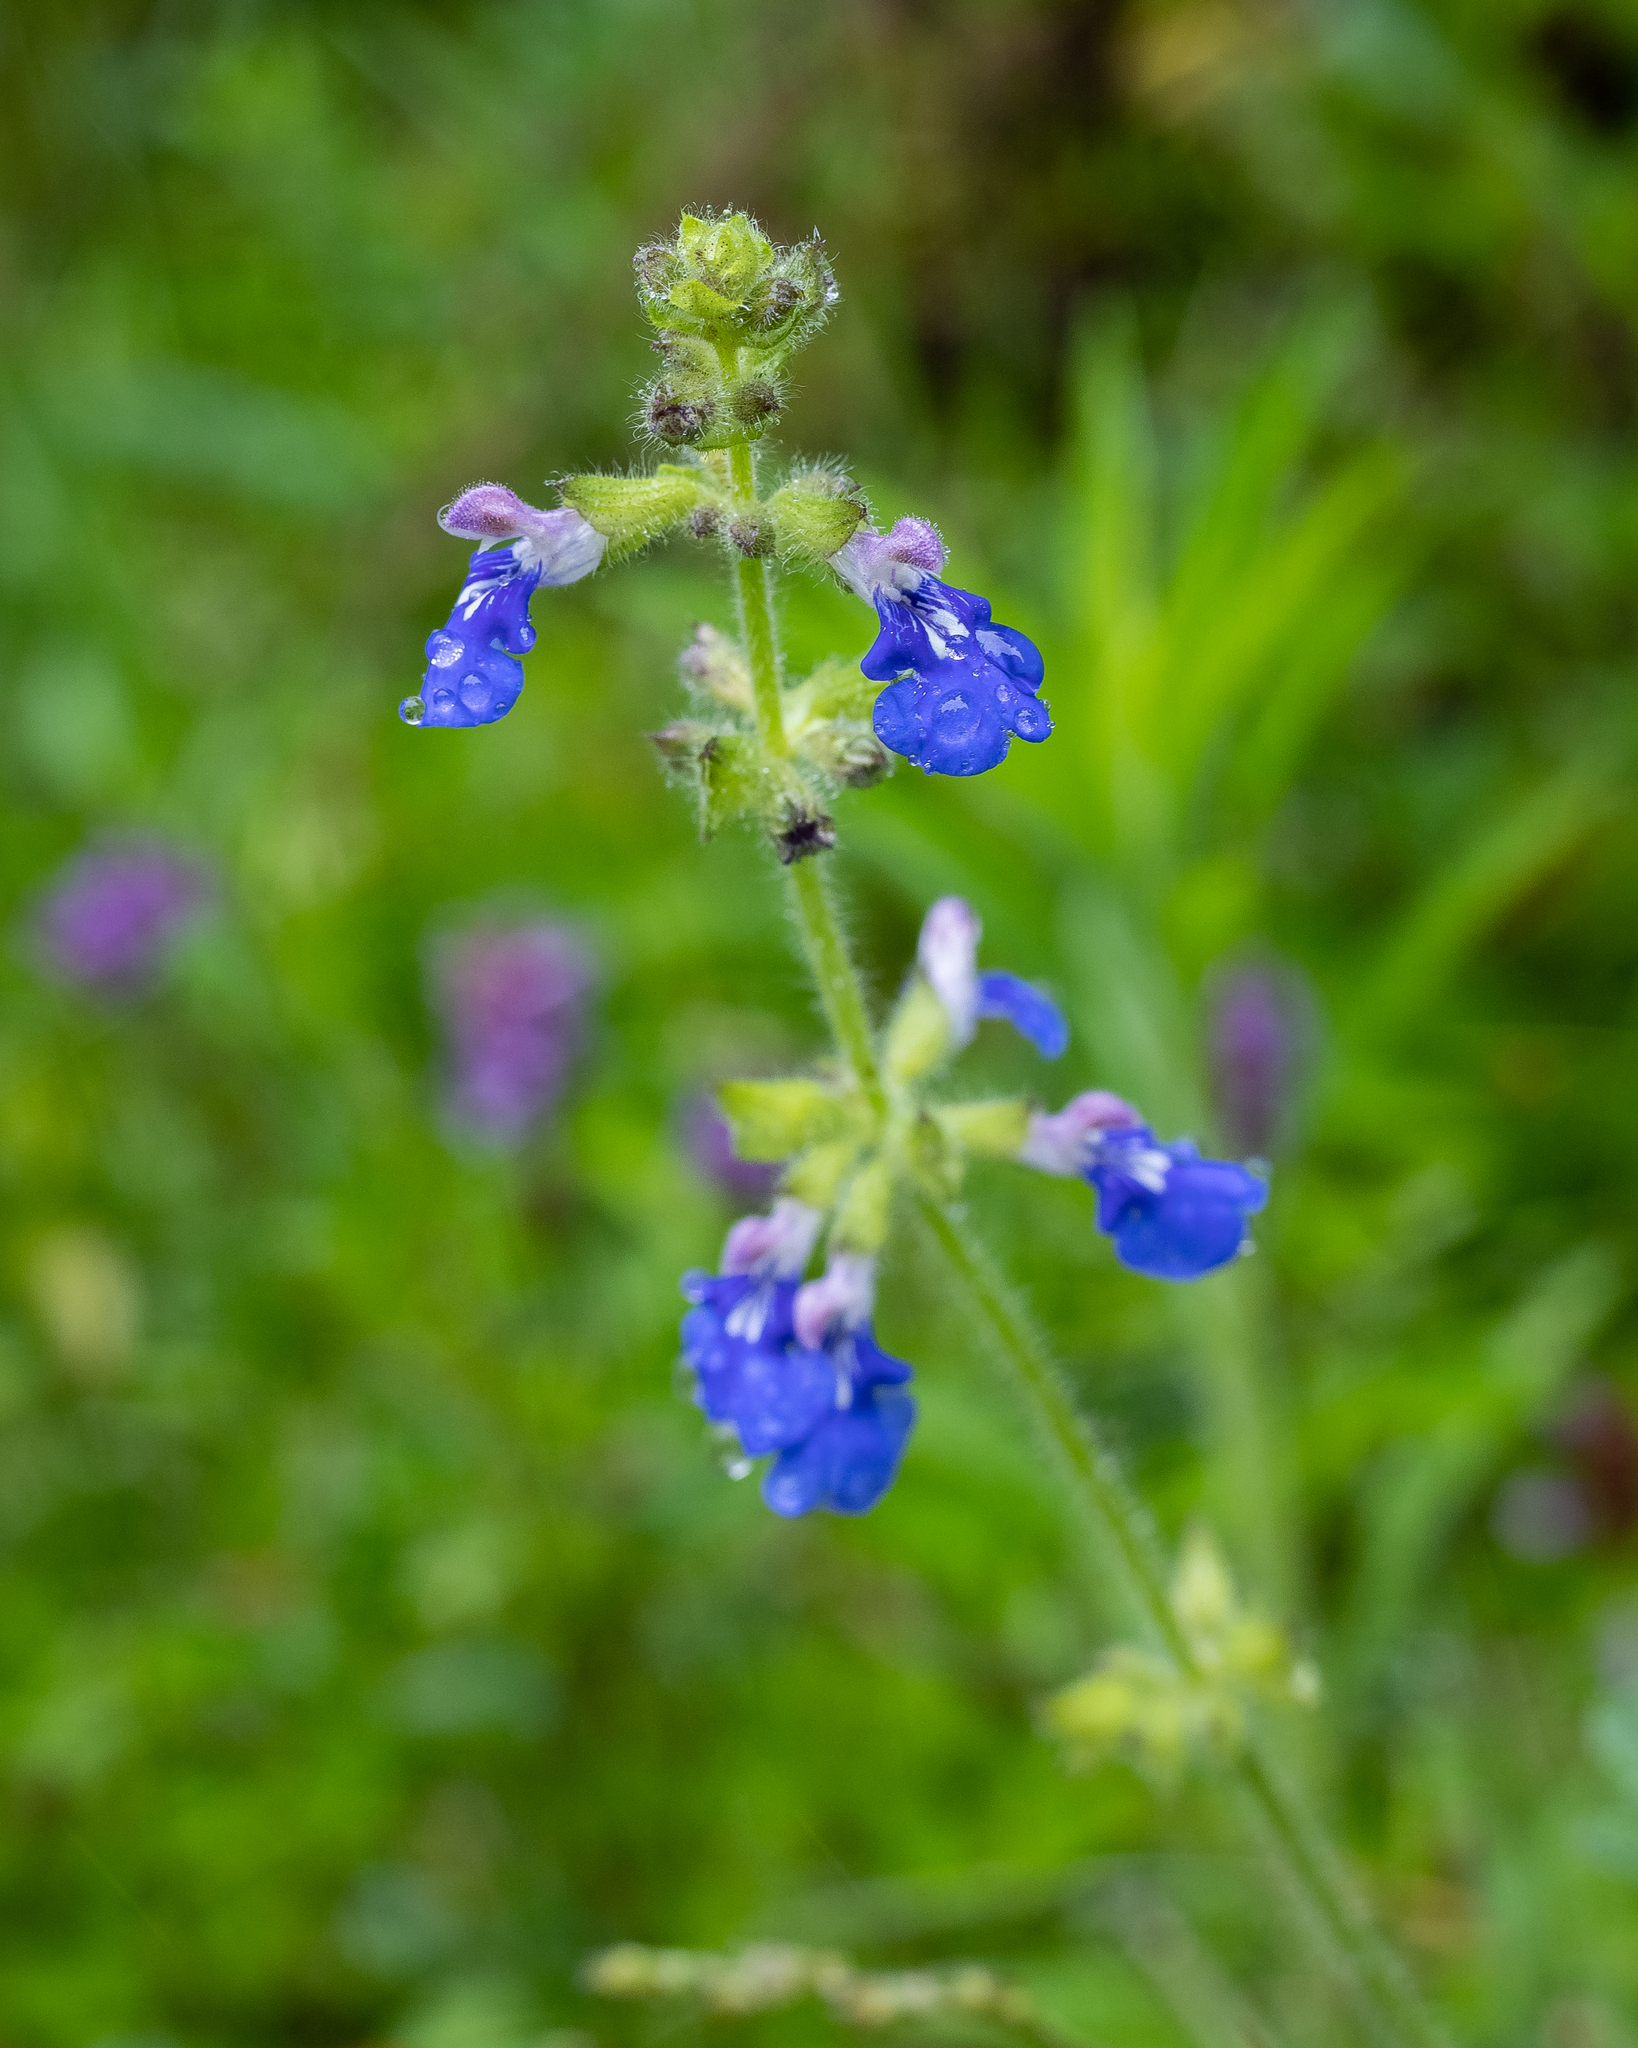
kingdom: Plantae
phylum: Tracheophyta
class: Magnoliopsida
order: Lamiales
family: Lamiaceae
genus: Salvia
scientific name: Salvia procurrens
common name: Blue creeper
